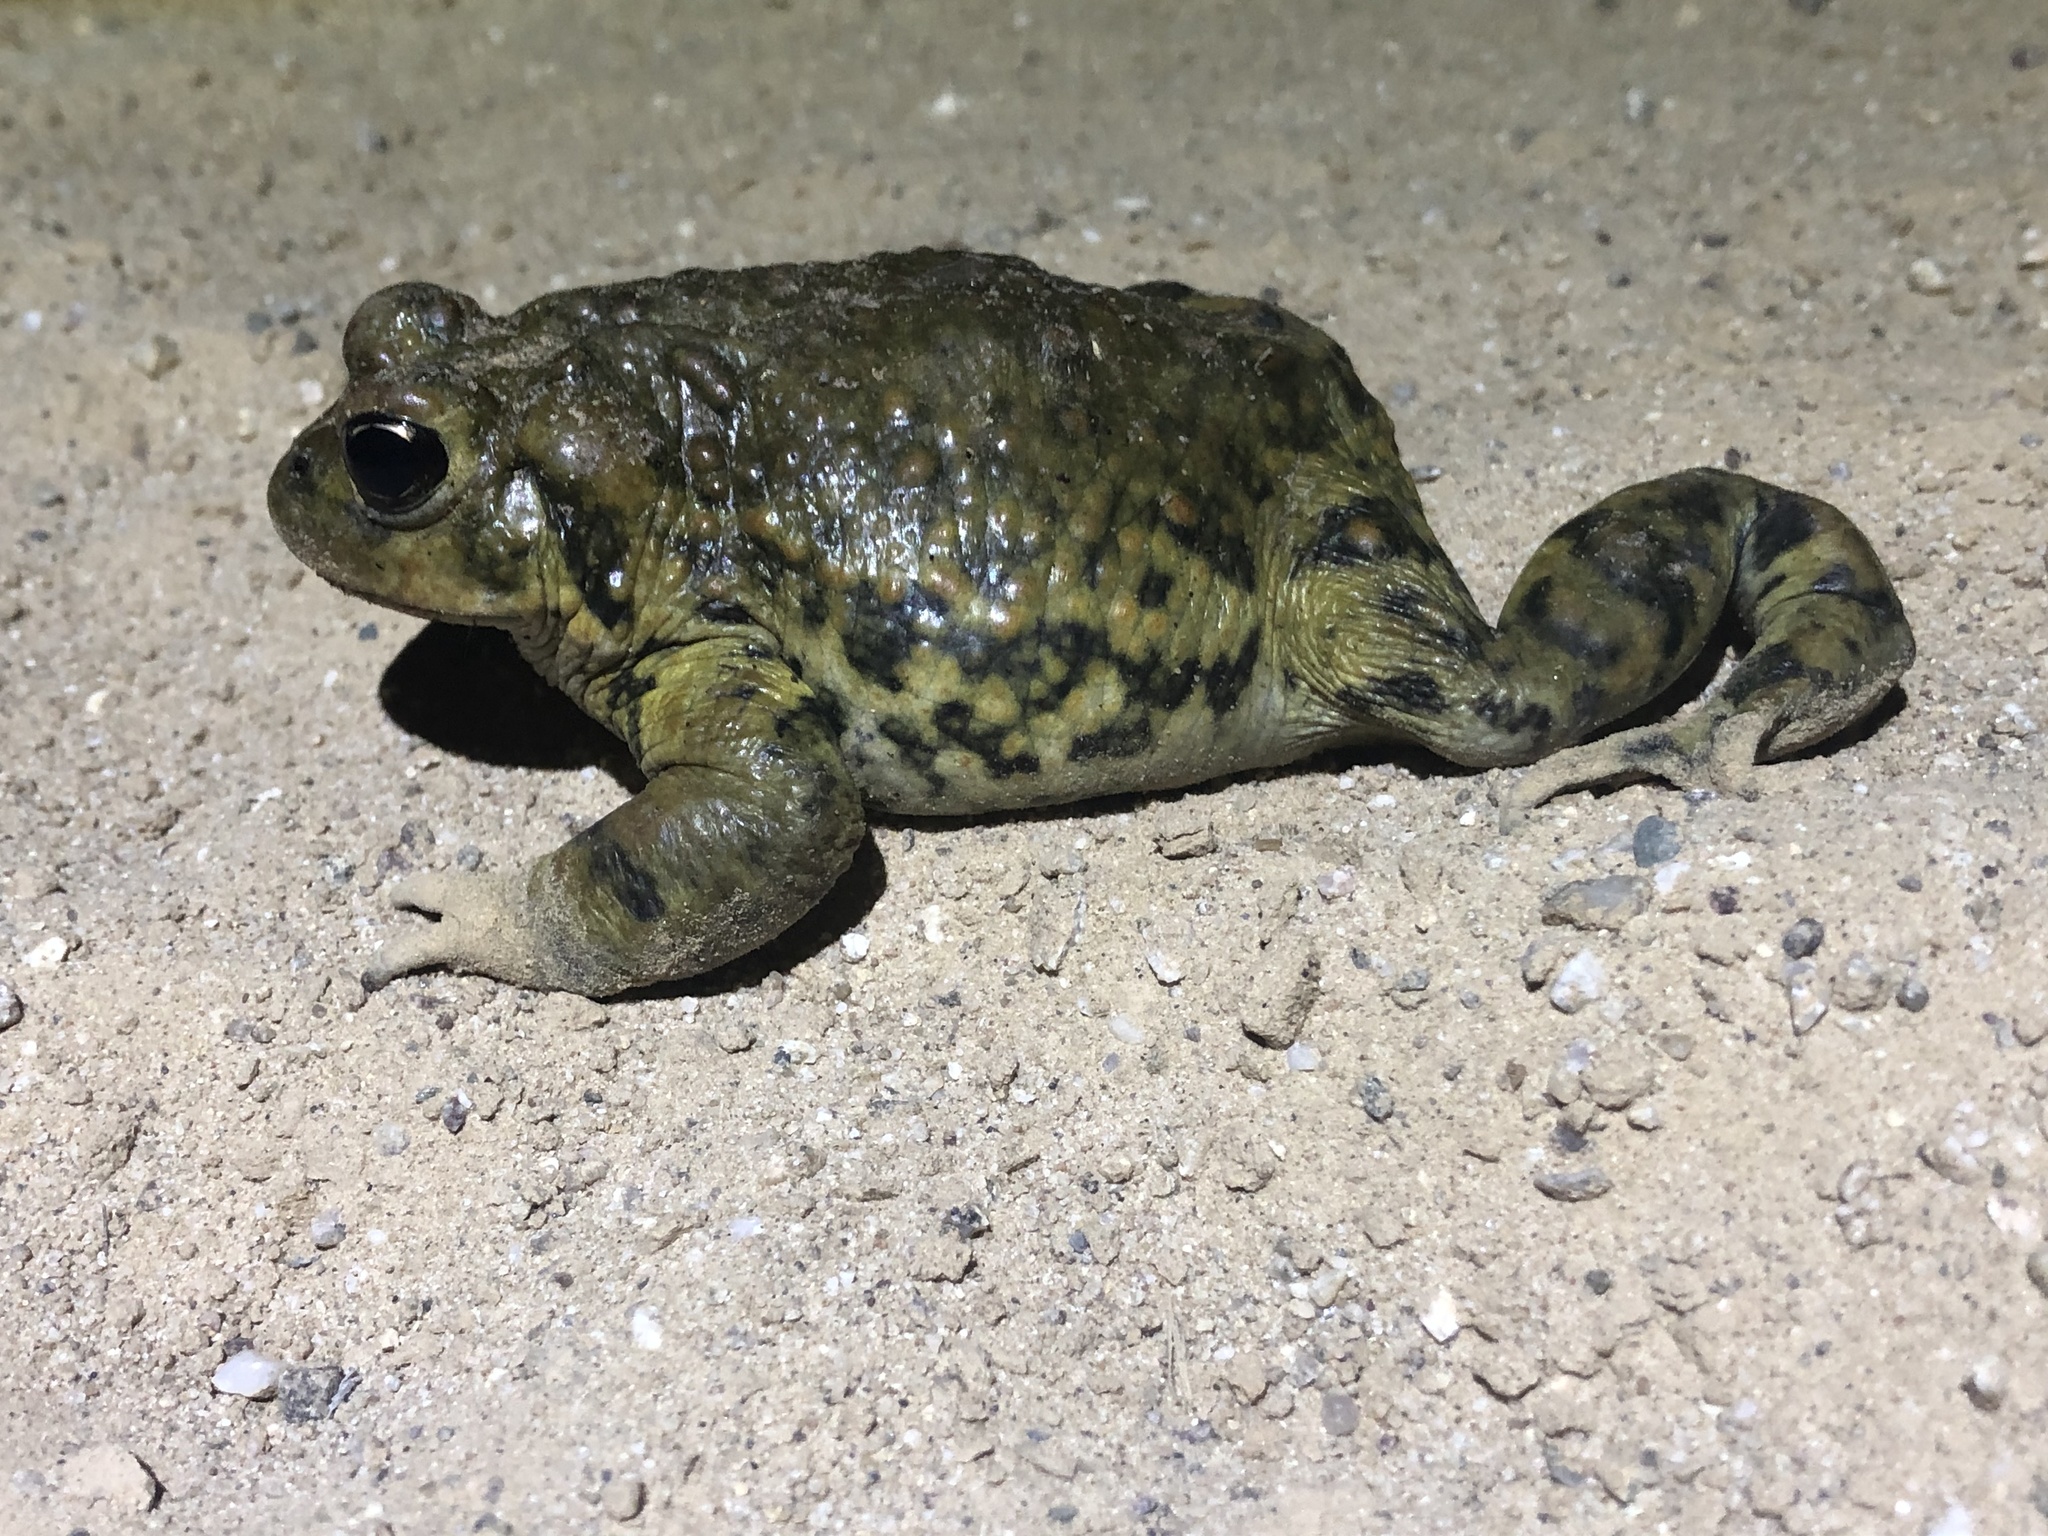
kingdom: Animalia
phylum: Chordata
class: Amphibia
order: Anura
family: Bufonidae
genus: Anaxyrus
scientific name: Anaxyrus boreas
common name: Western toad
